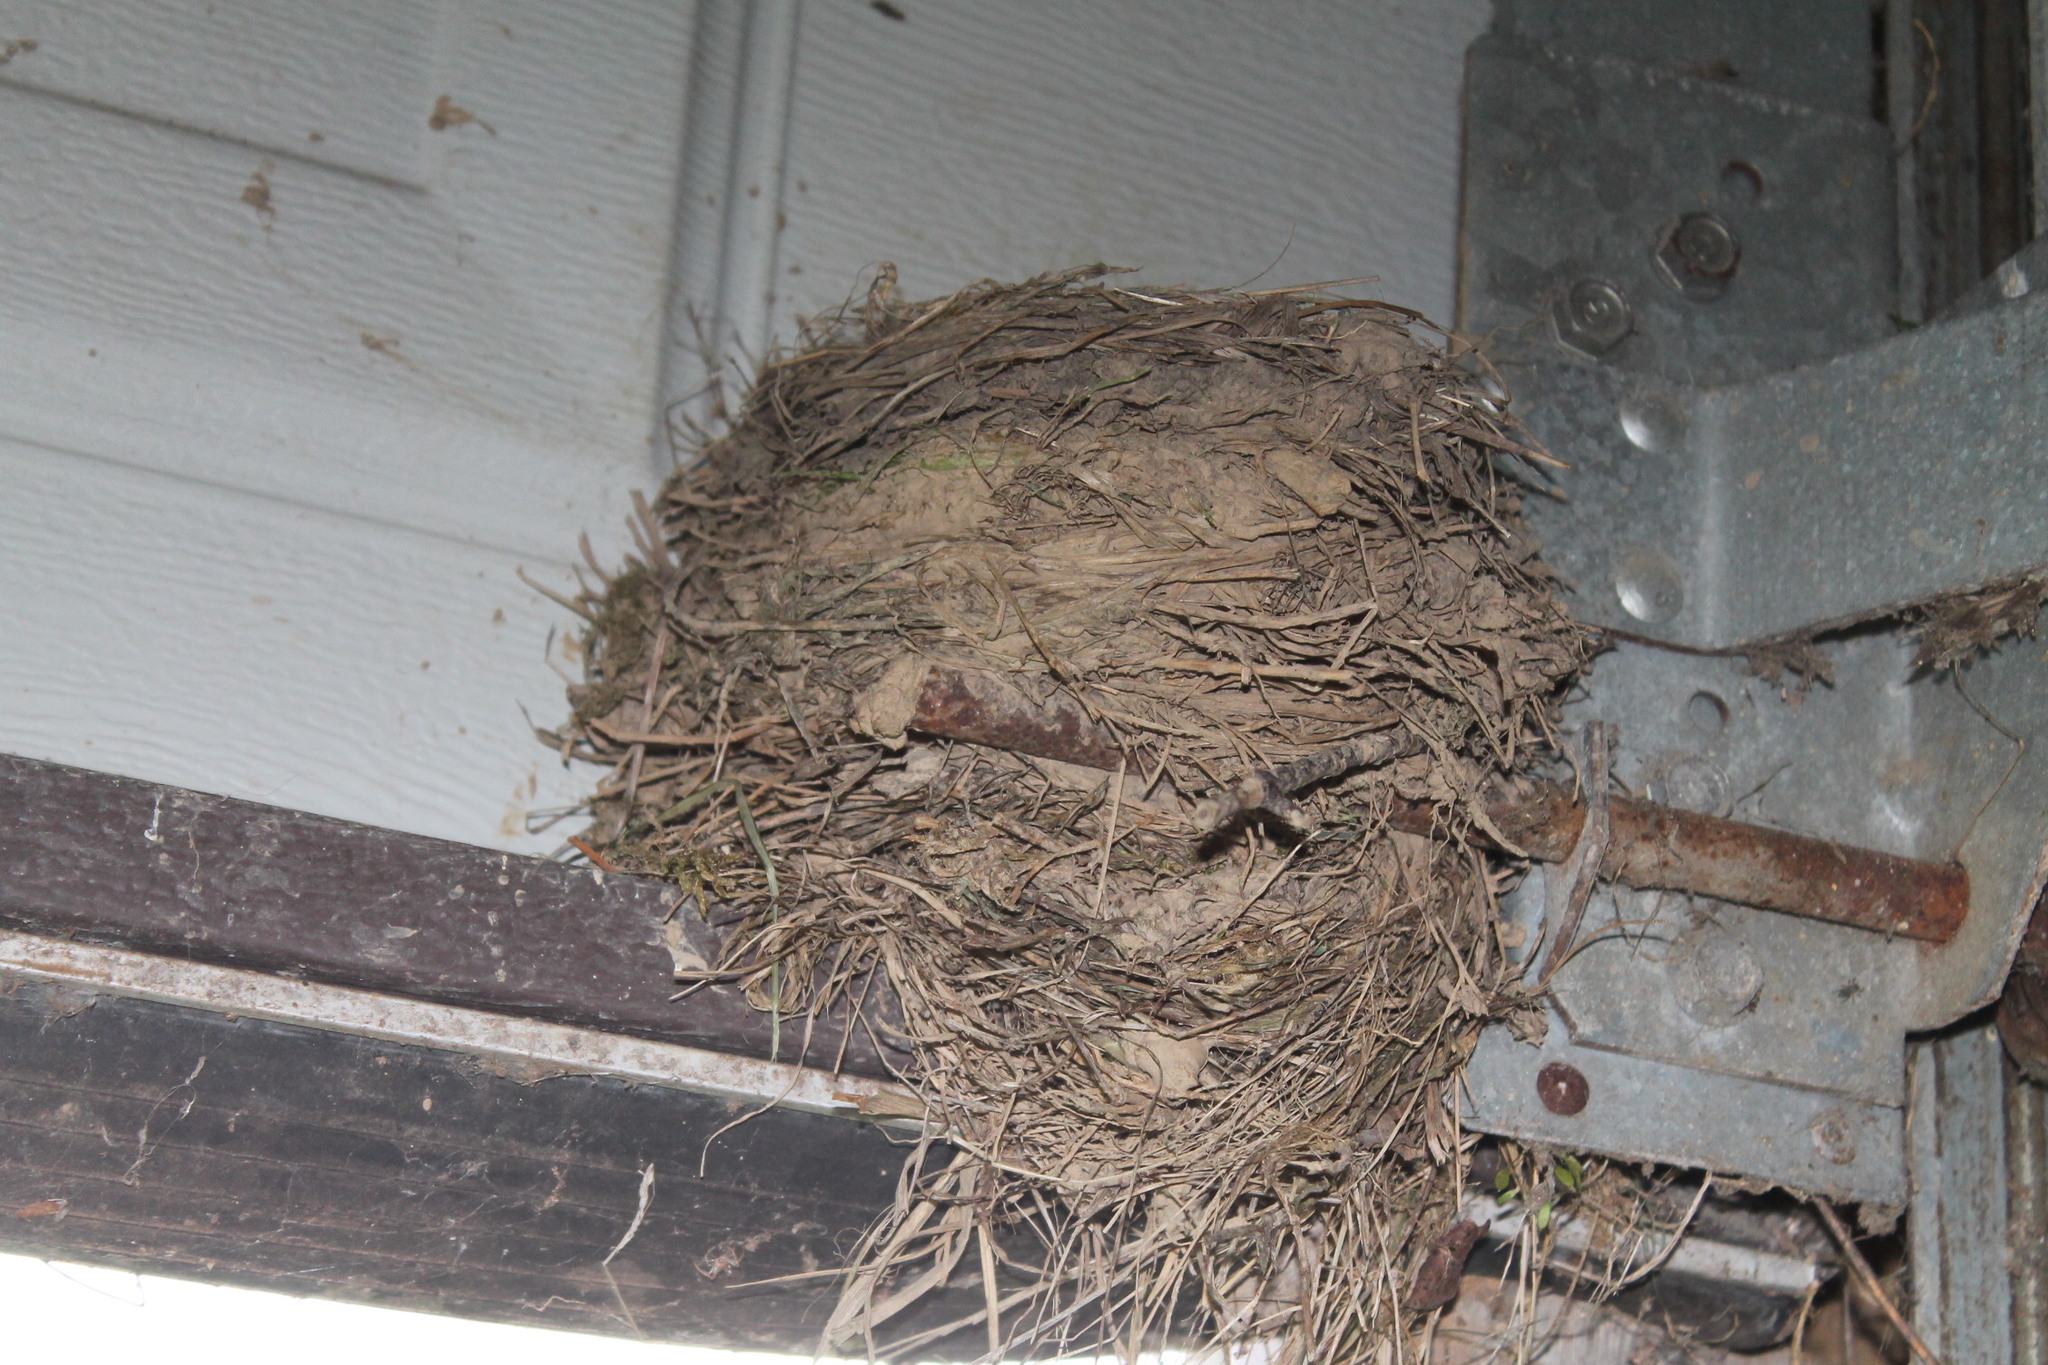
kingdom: Animalia
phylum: Chordata
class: Aves
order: Passeriformes
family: Turdidae
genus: Turdus
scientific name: Turdus migratorius
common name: American robin
